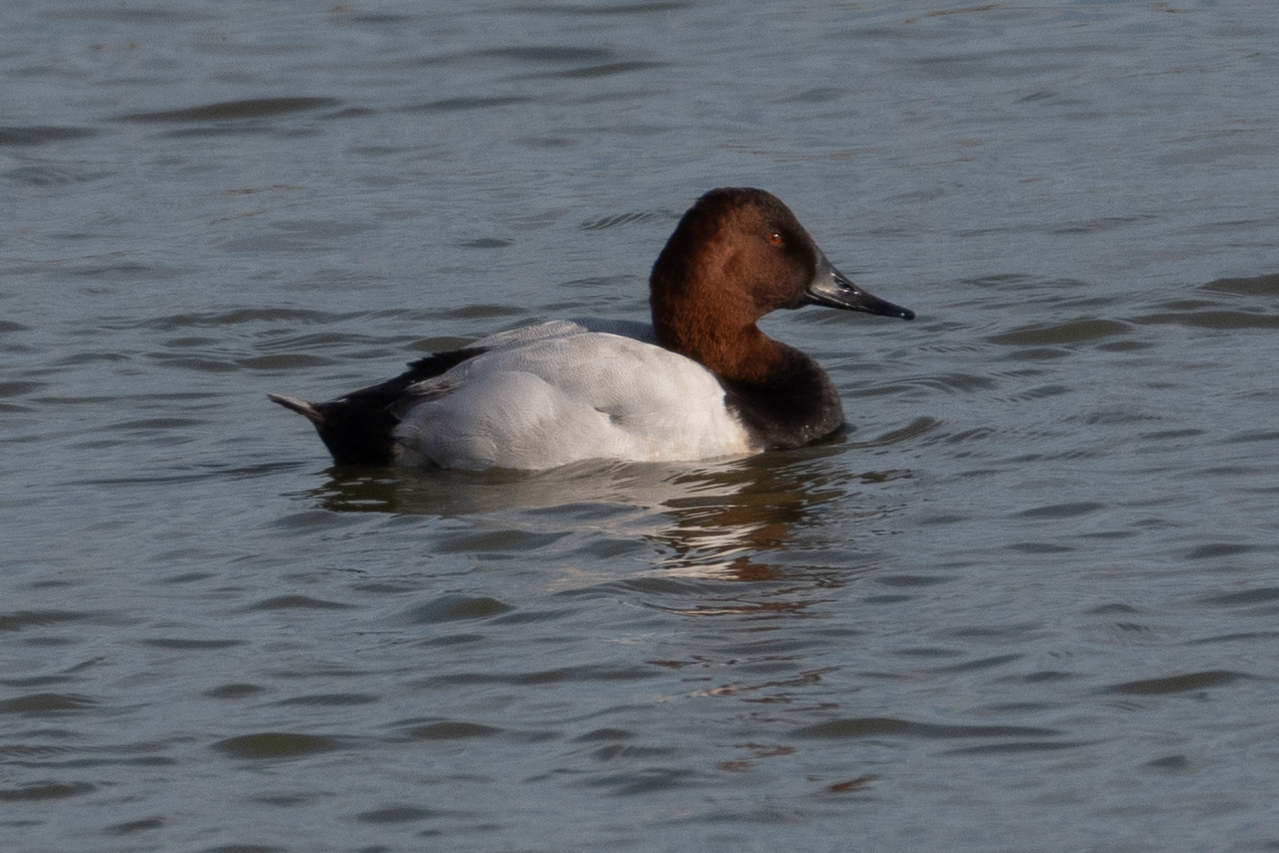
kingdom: Animalia
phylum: Chordata
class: Aves
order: Anseriformes
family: Anatidae
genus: Aythya
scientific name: Aythya valisineria
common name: Canvasback
